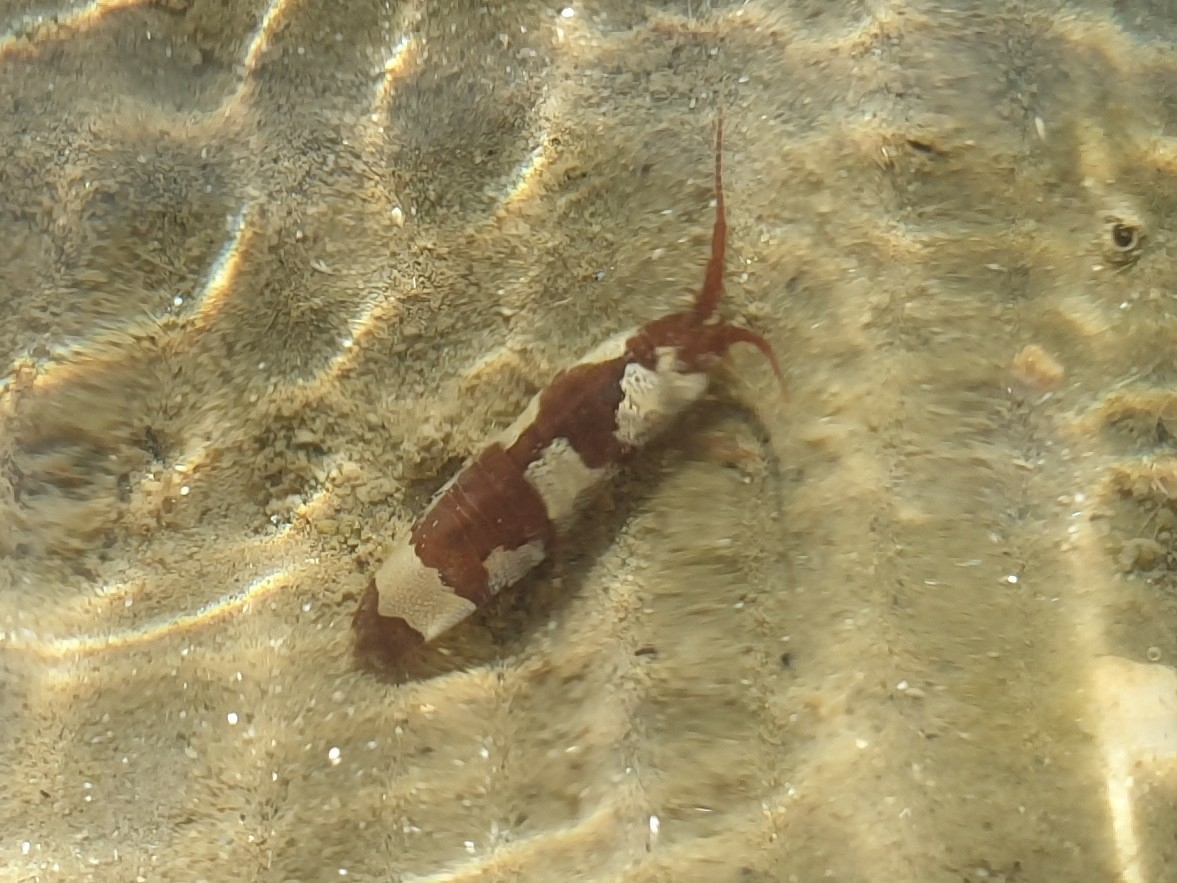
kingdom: Animalia
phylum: Arthropoda
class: Malacostraca
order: Isopoda
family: Idoteidae
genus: Idotea
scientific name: Idotea balthica
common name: Baltic isopod
